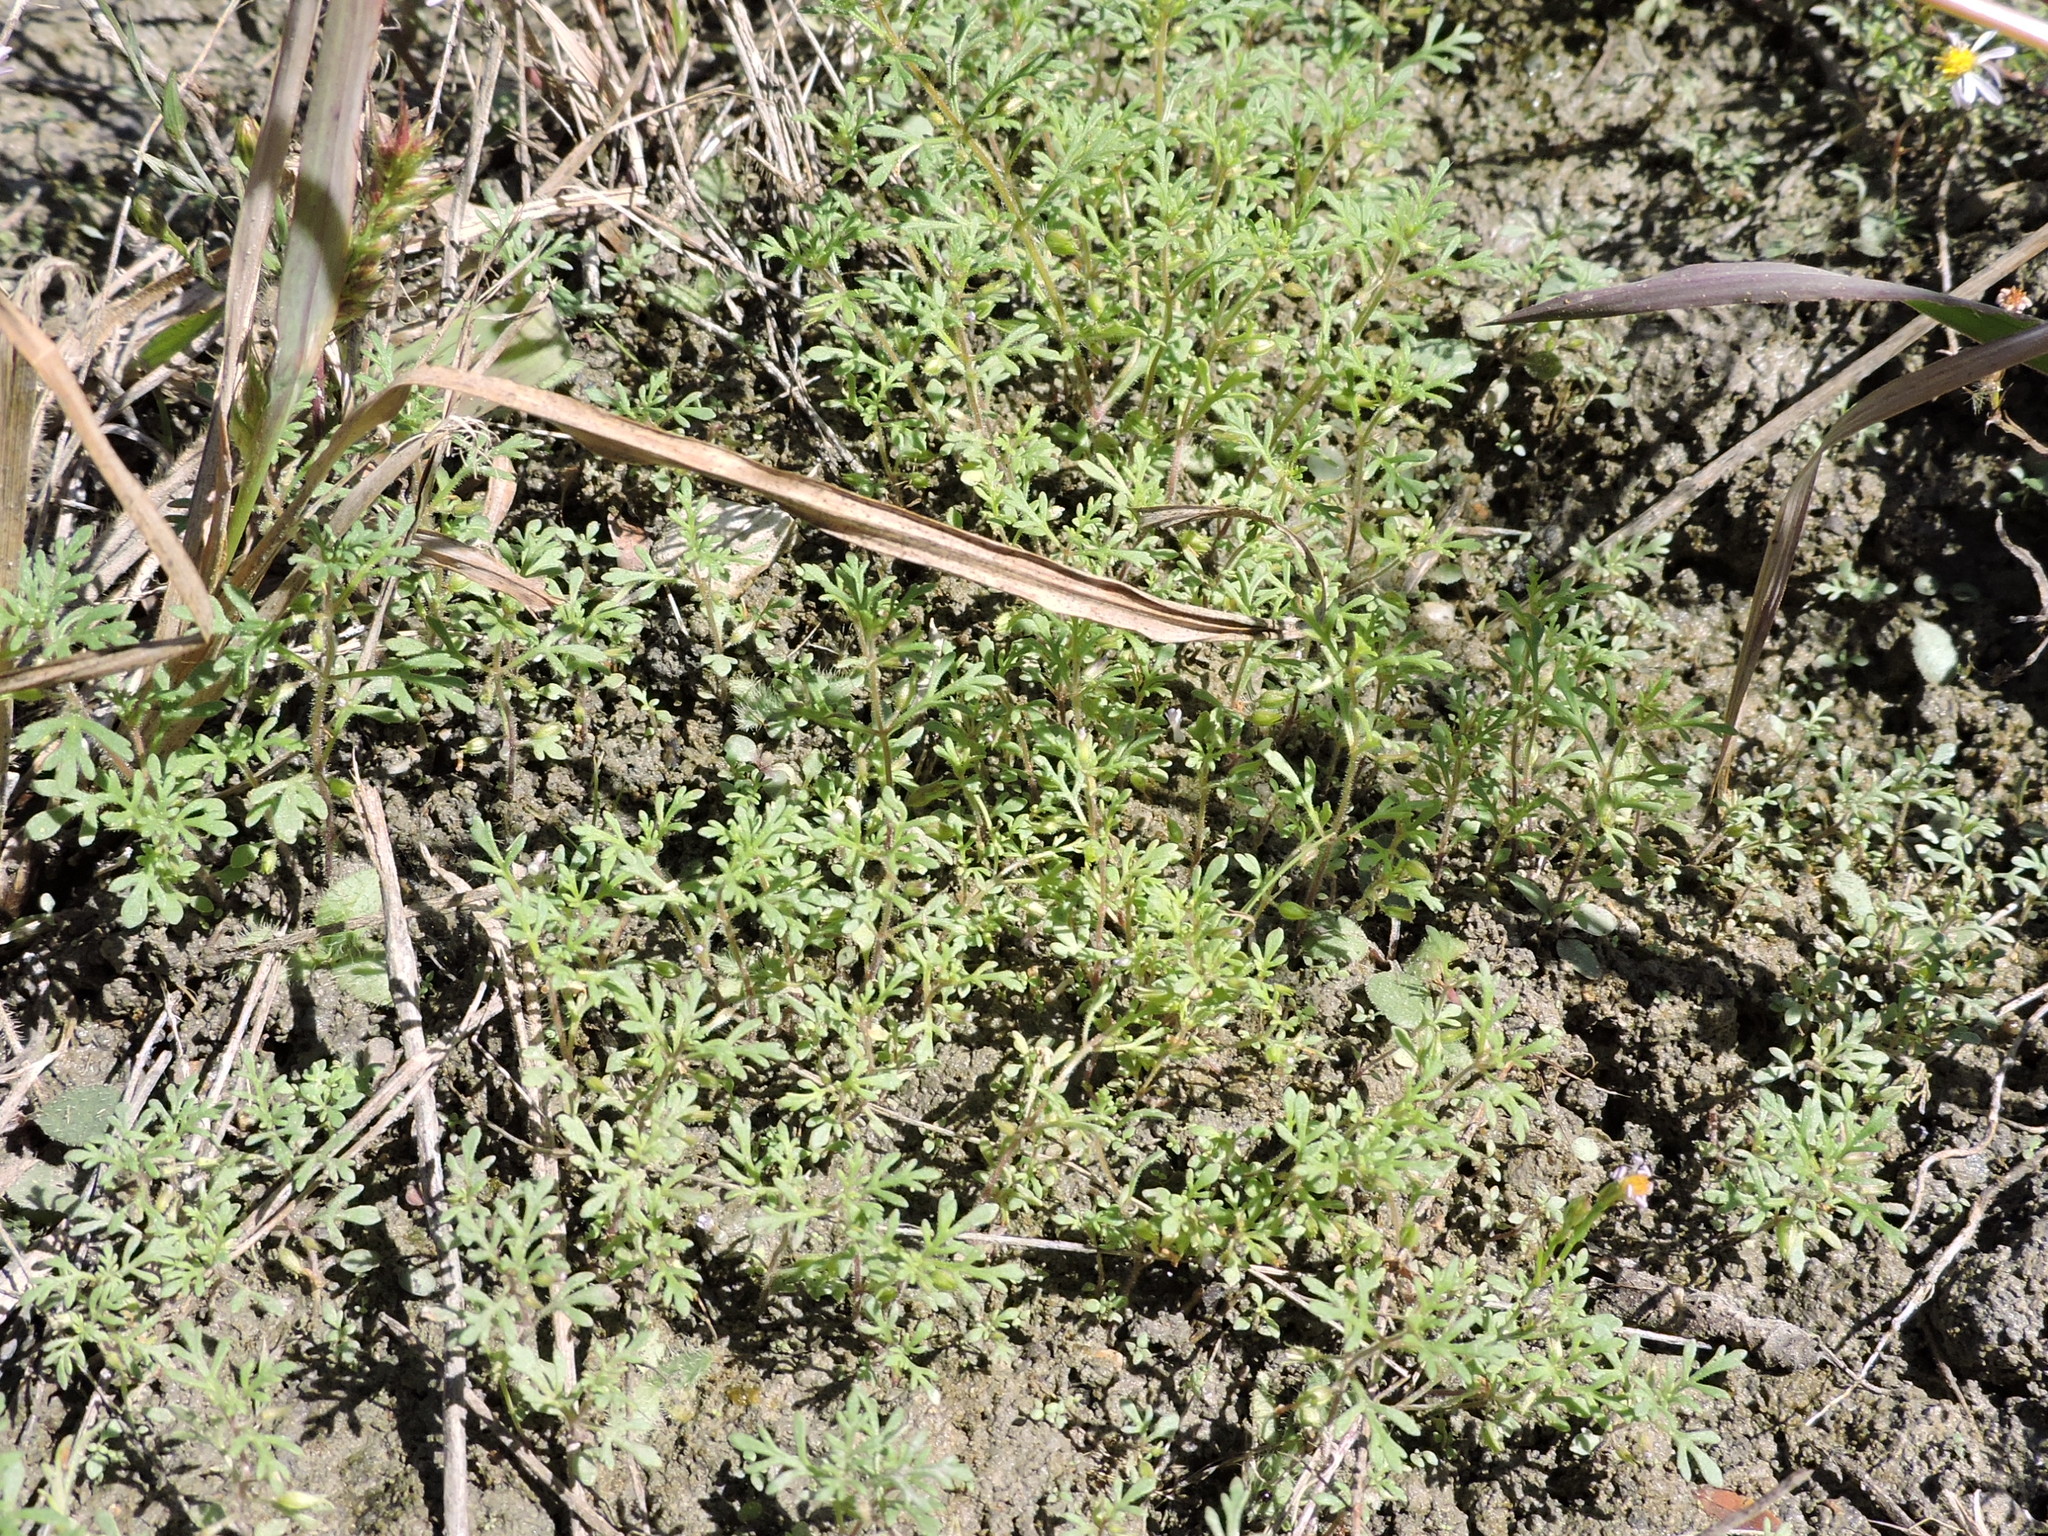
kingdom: Plantae
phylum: Tracheophyta
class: Magnoliopsida
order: Lamiales
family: Plantaginaceae
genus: Leucospora
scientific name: Leucospora multifida
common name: Narrow-leaf paleseed
